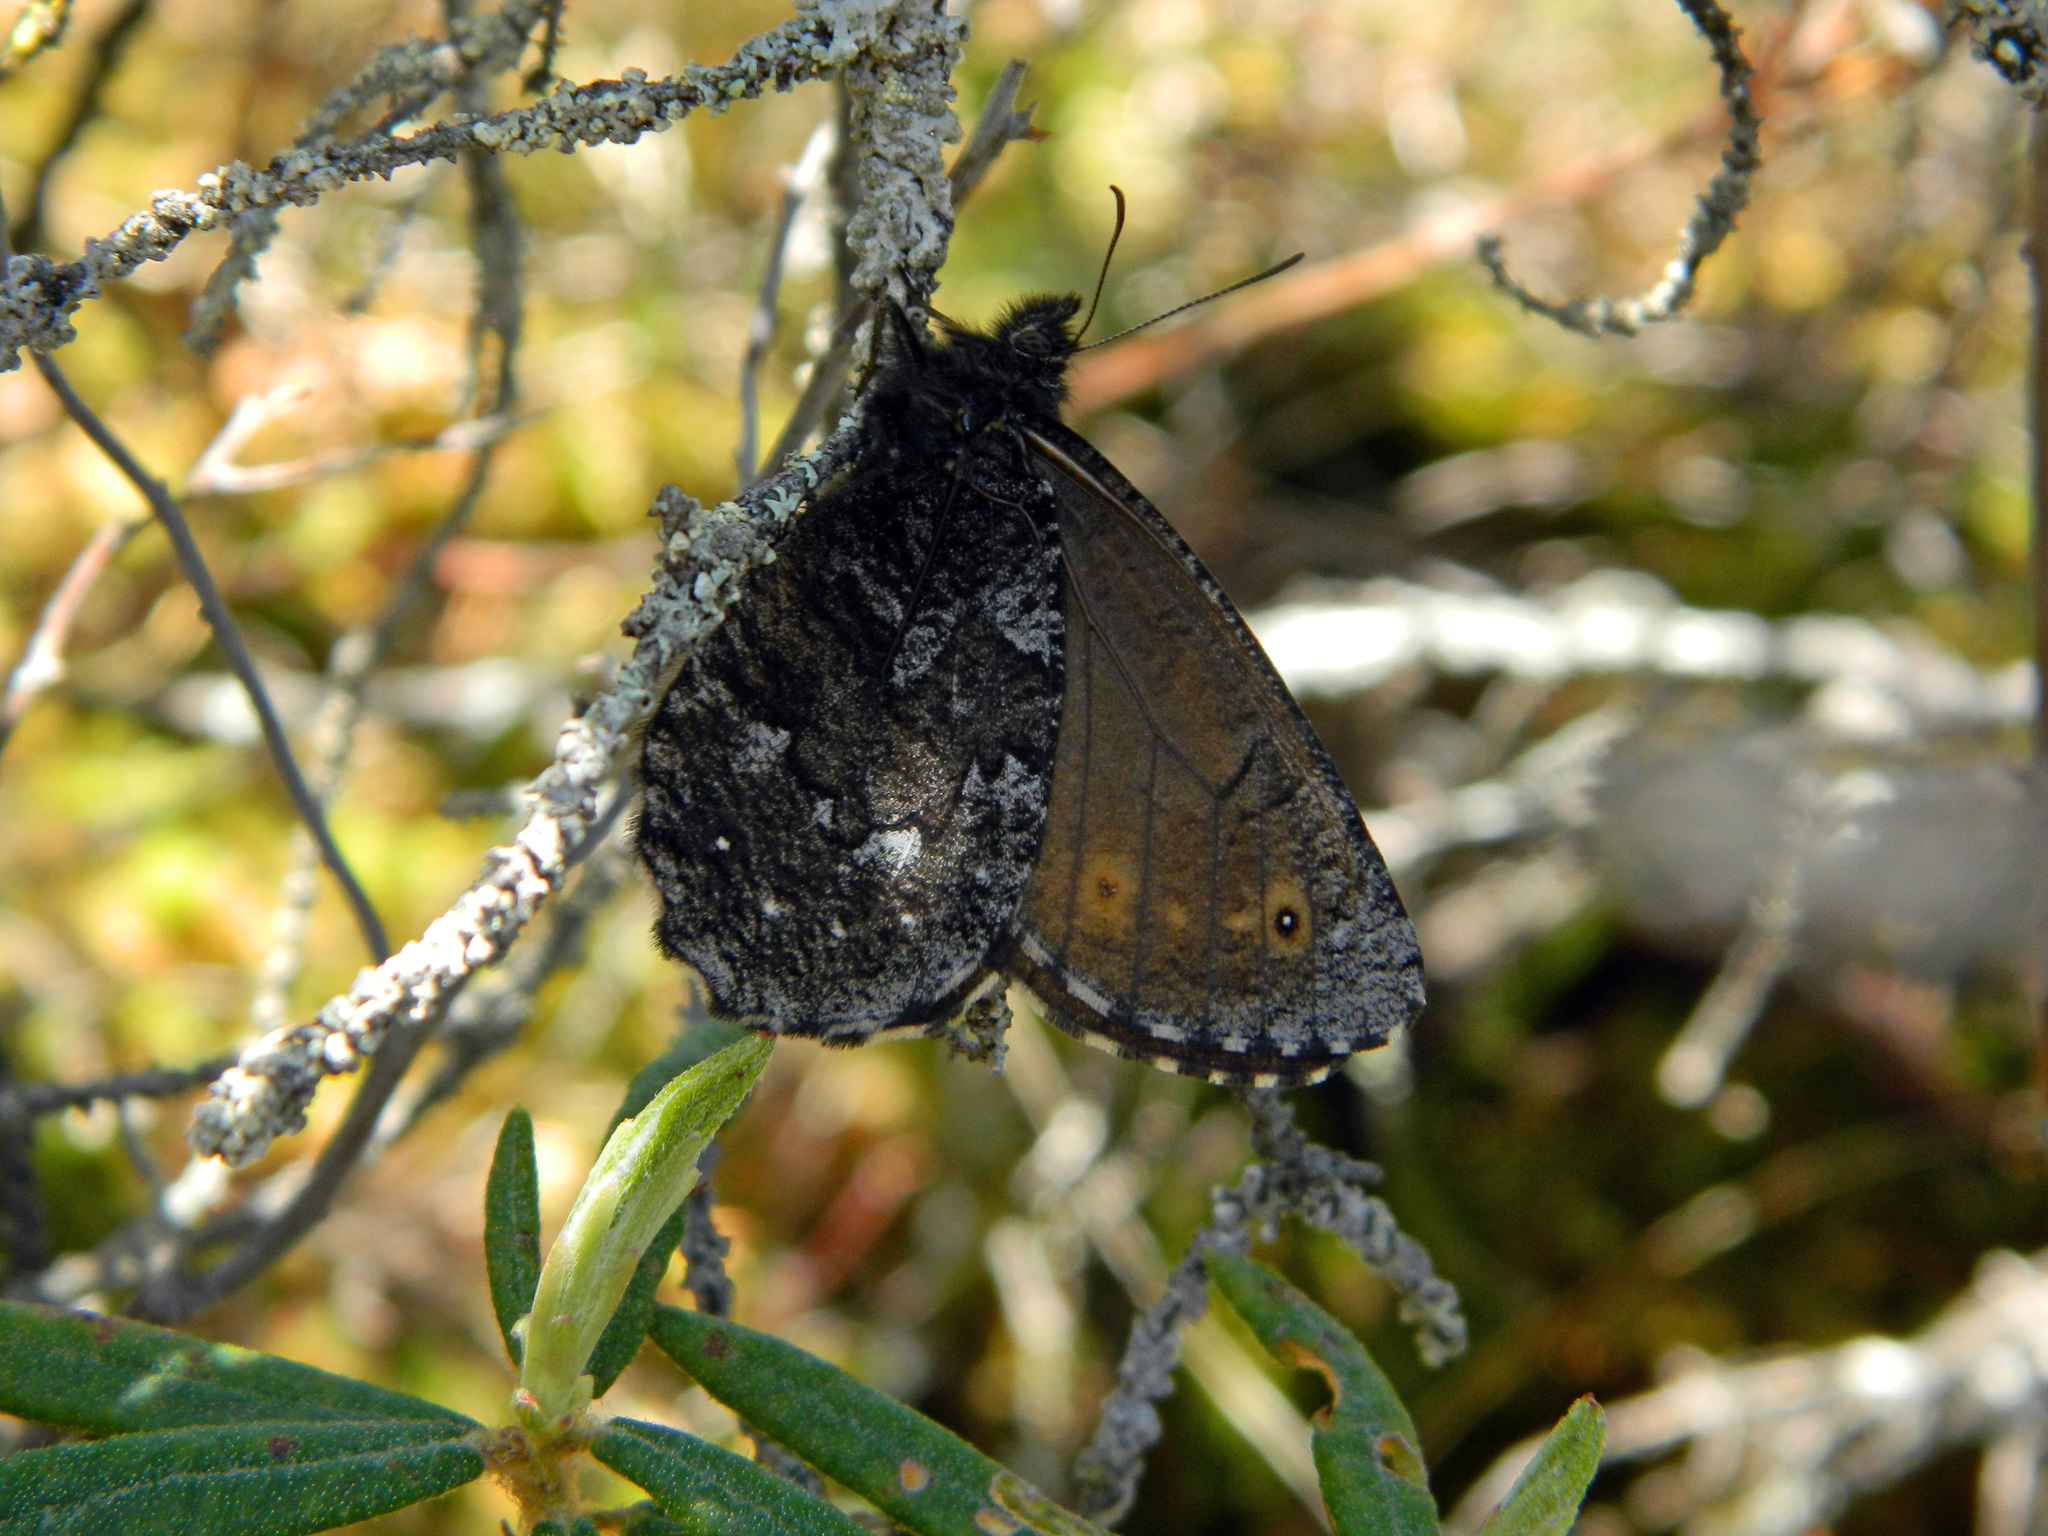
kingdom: Animalia
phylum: Arthropoda
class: Insecta
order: Lepidoptera
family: Nymphalidae
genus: Oeneis
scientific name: Oeneis jutta
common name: Baltic grayling
